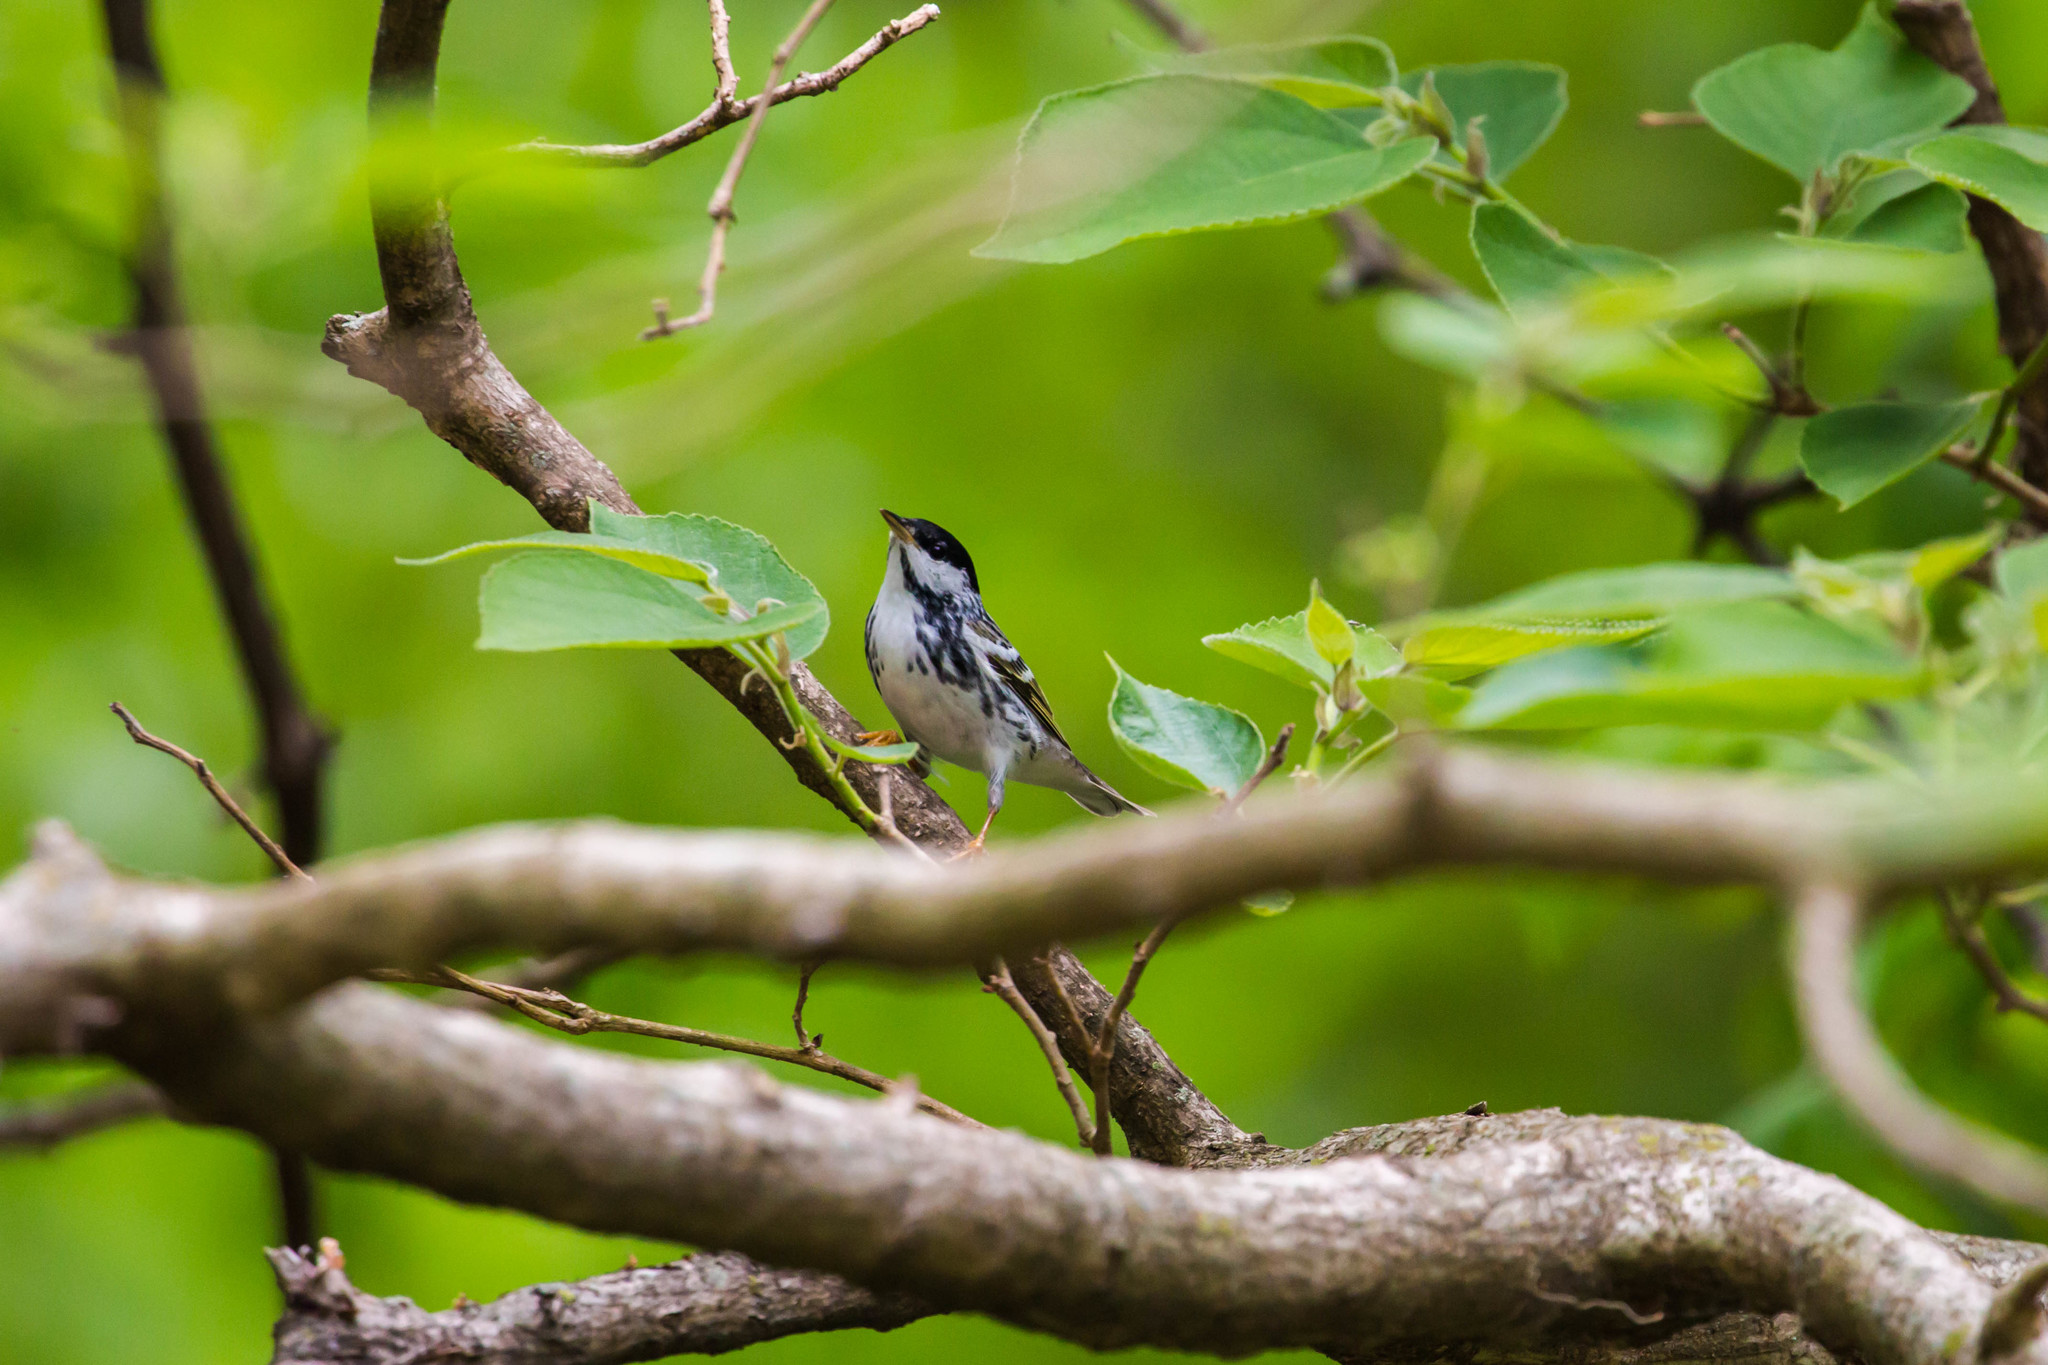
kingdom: Animalia
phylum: Chordata
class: Aves
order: Passeriformes
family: Parulidae
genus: Setophaga
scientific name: Setophaga striata
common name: Blackpoll warbler
